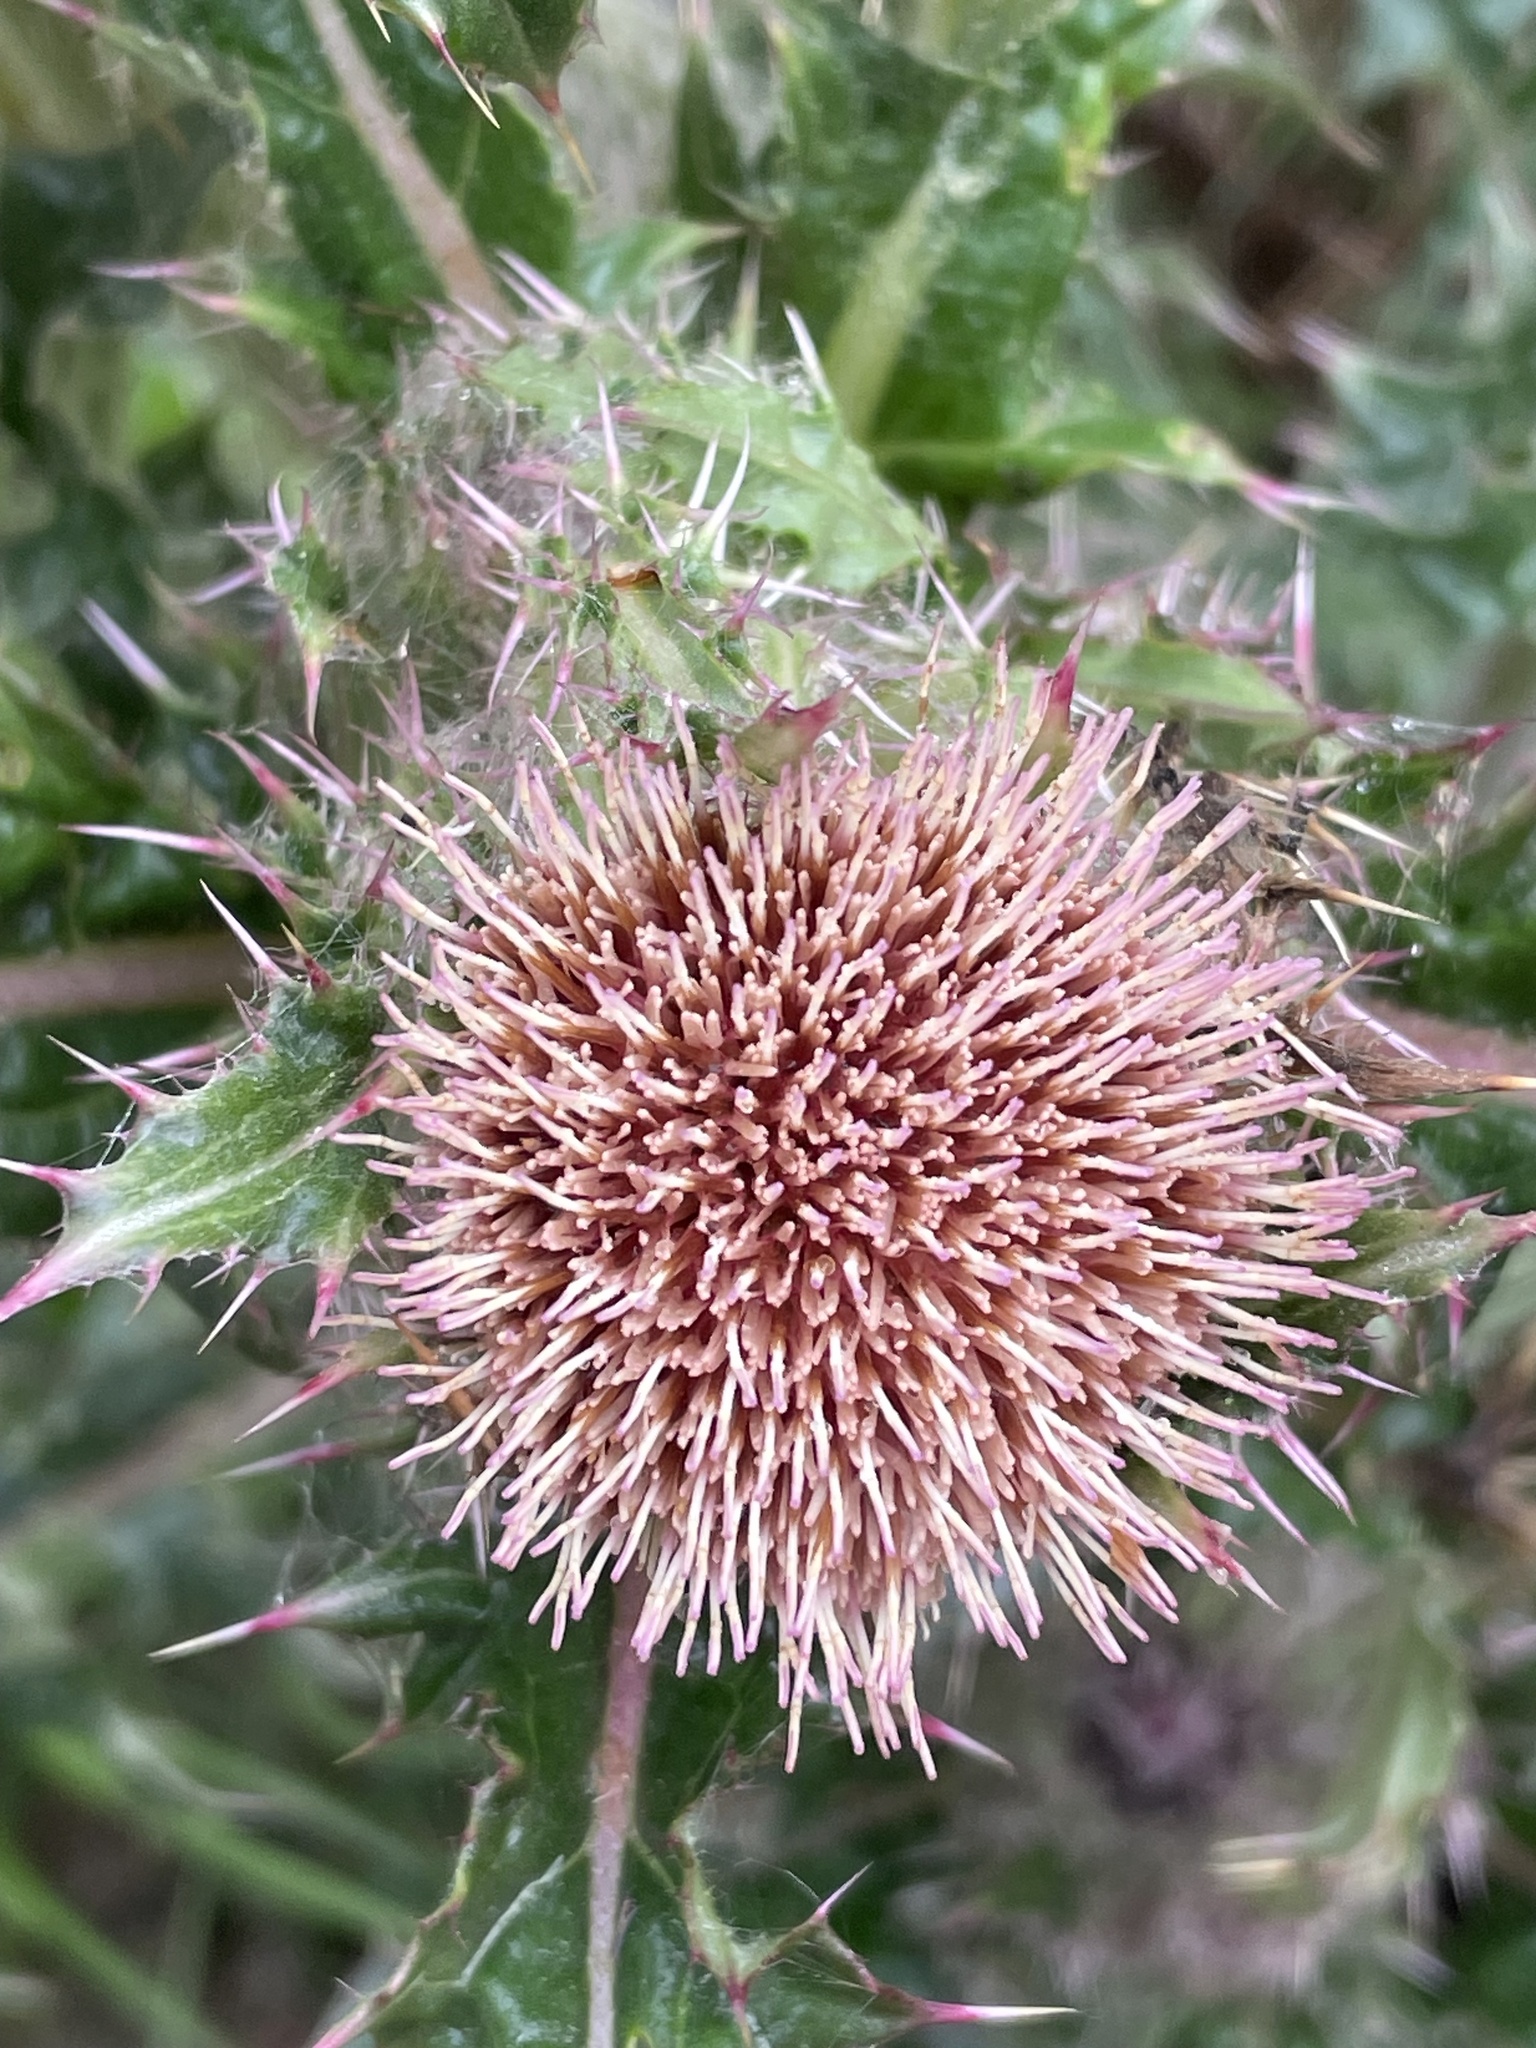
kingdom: Plantae
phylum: Tracheophyta
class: Magnoliopsida
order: Asterales
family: Asteraceae
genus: Cirsium
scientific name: Cirsium horridulum
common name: Bristly thistle
